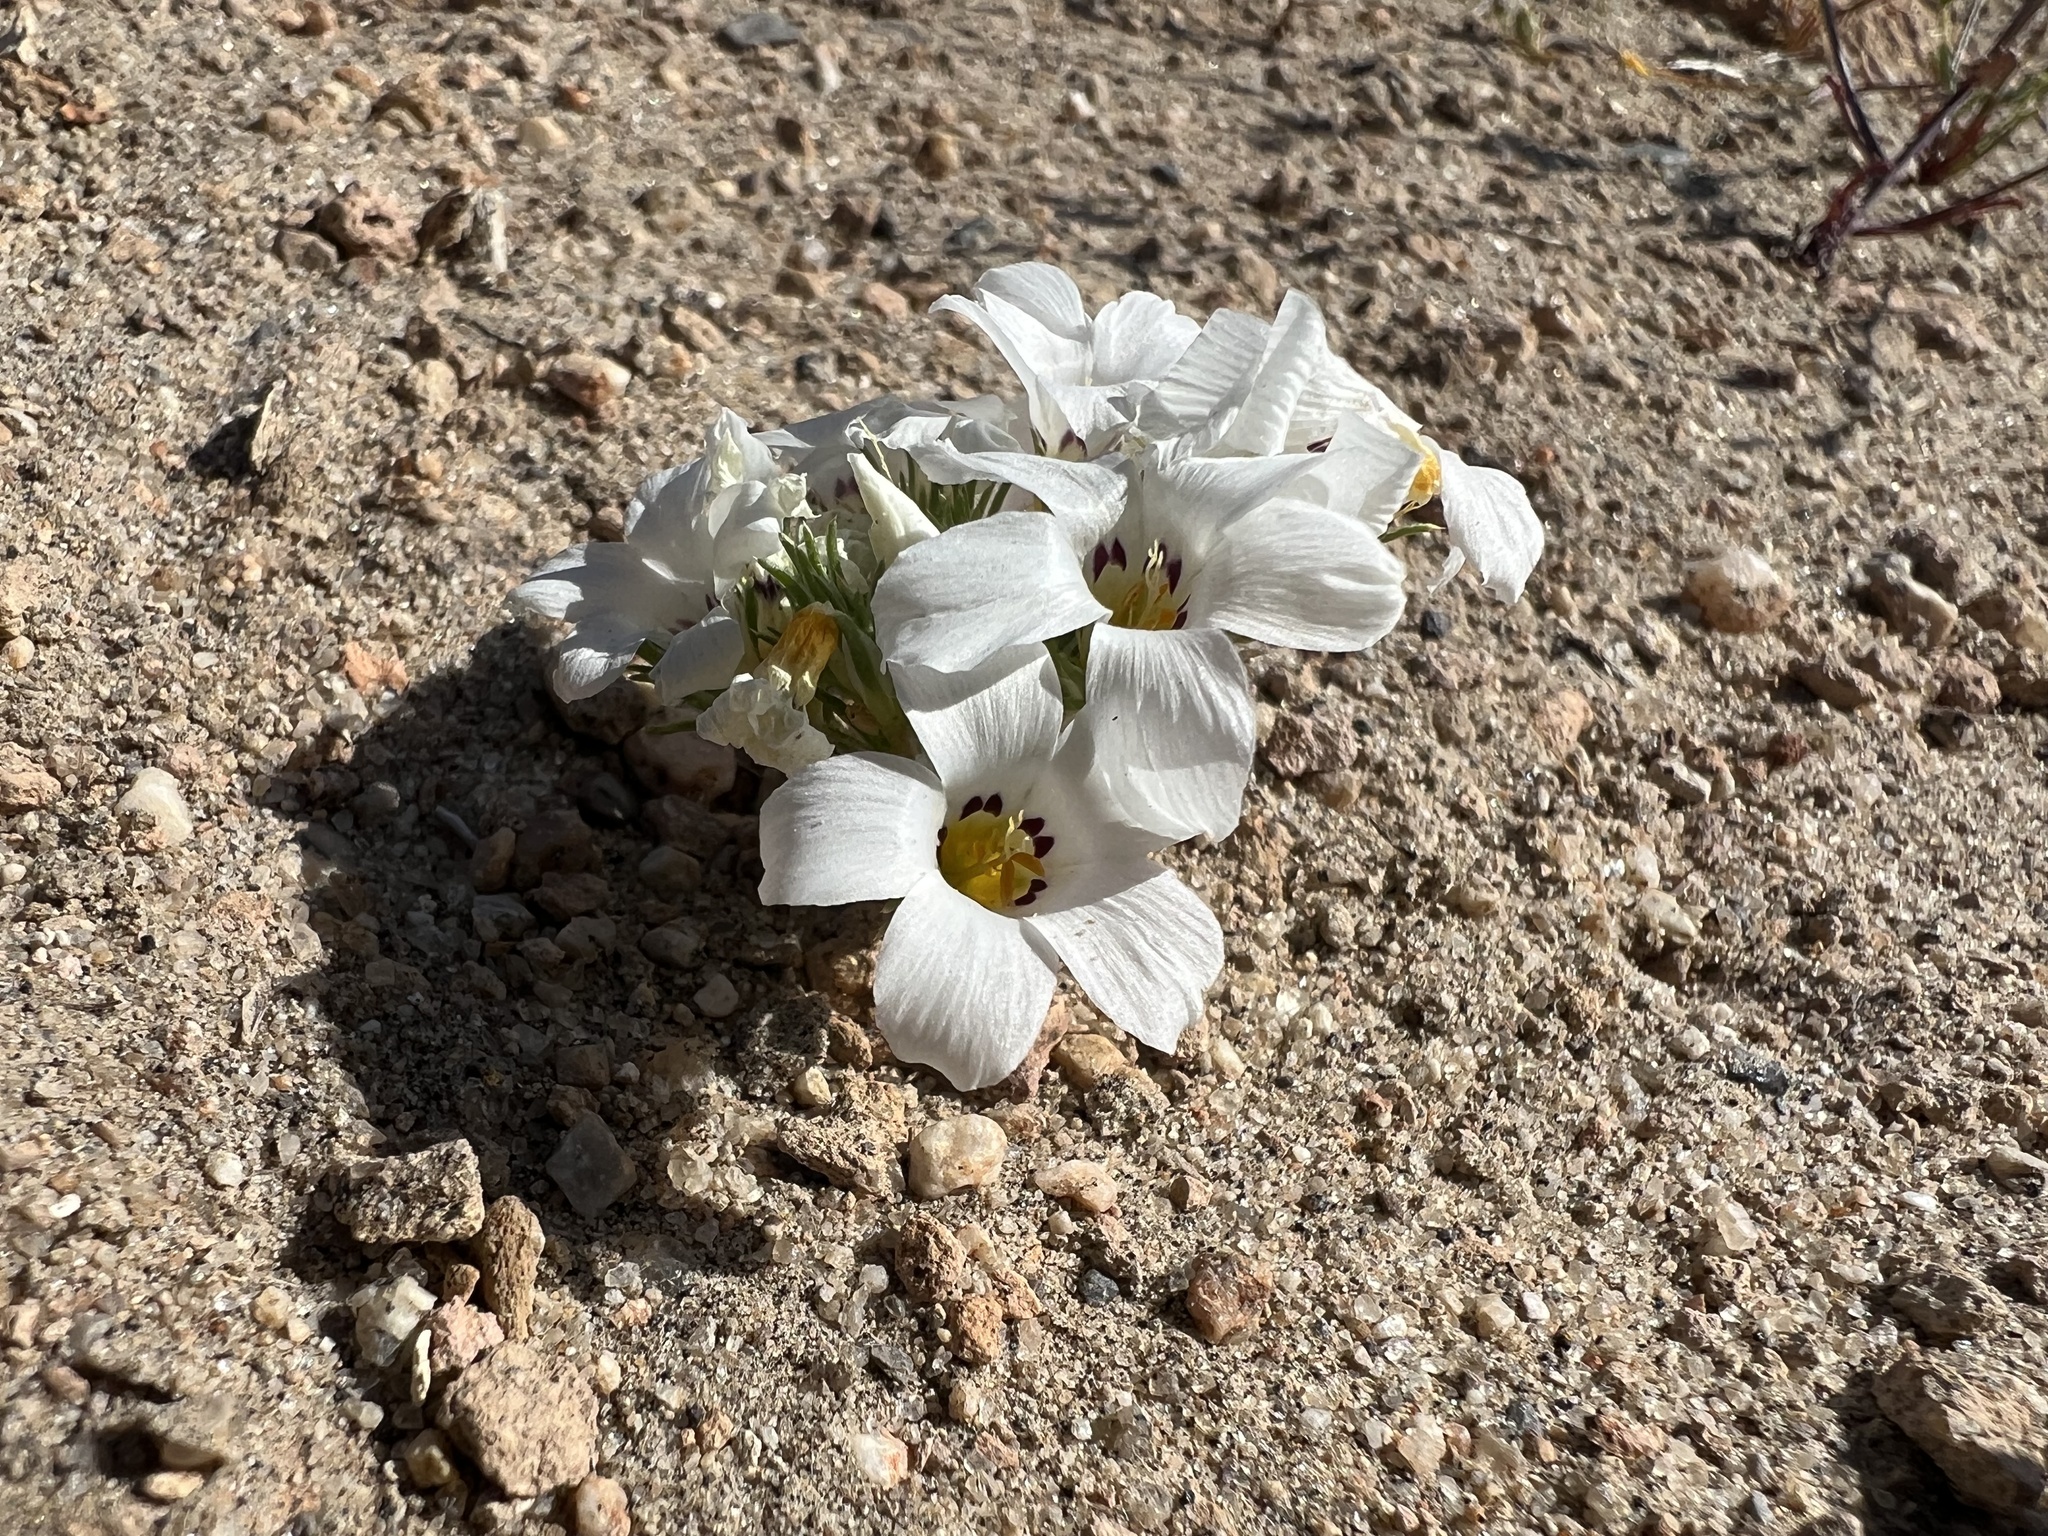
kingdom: Plantae
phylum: Tracheophyta
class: Magnoliopsida
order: Ericales
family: Polemoniaceae
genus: Linanthus
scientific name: Linanthus parryae
